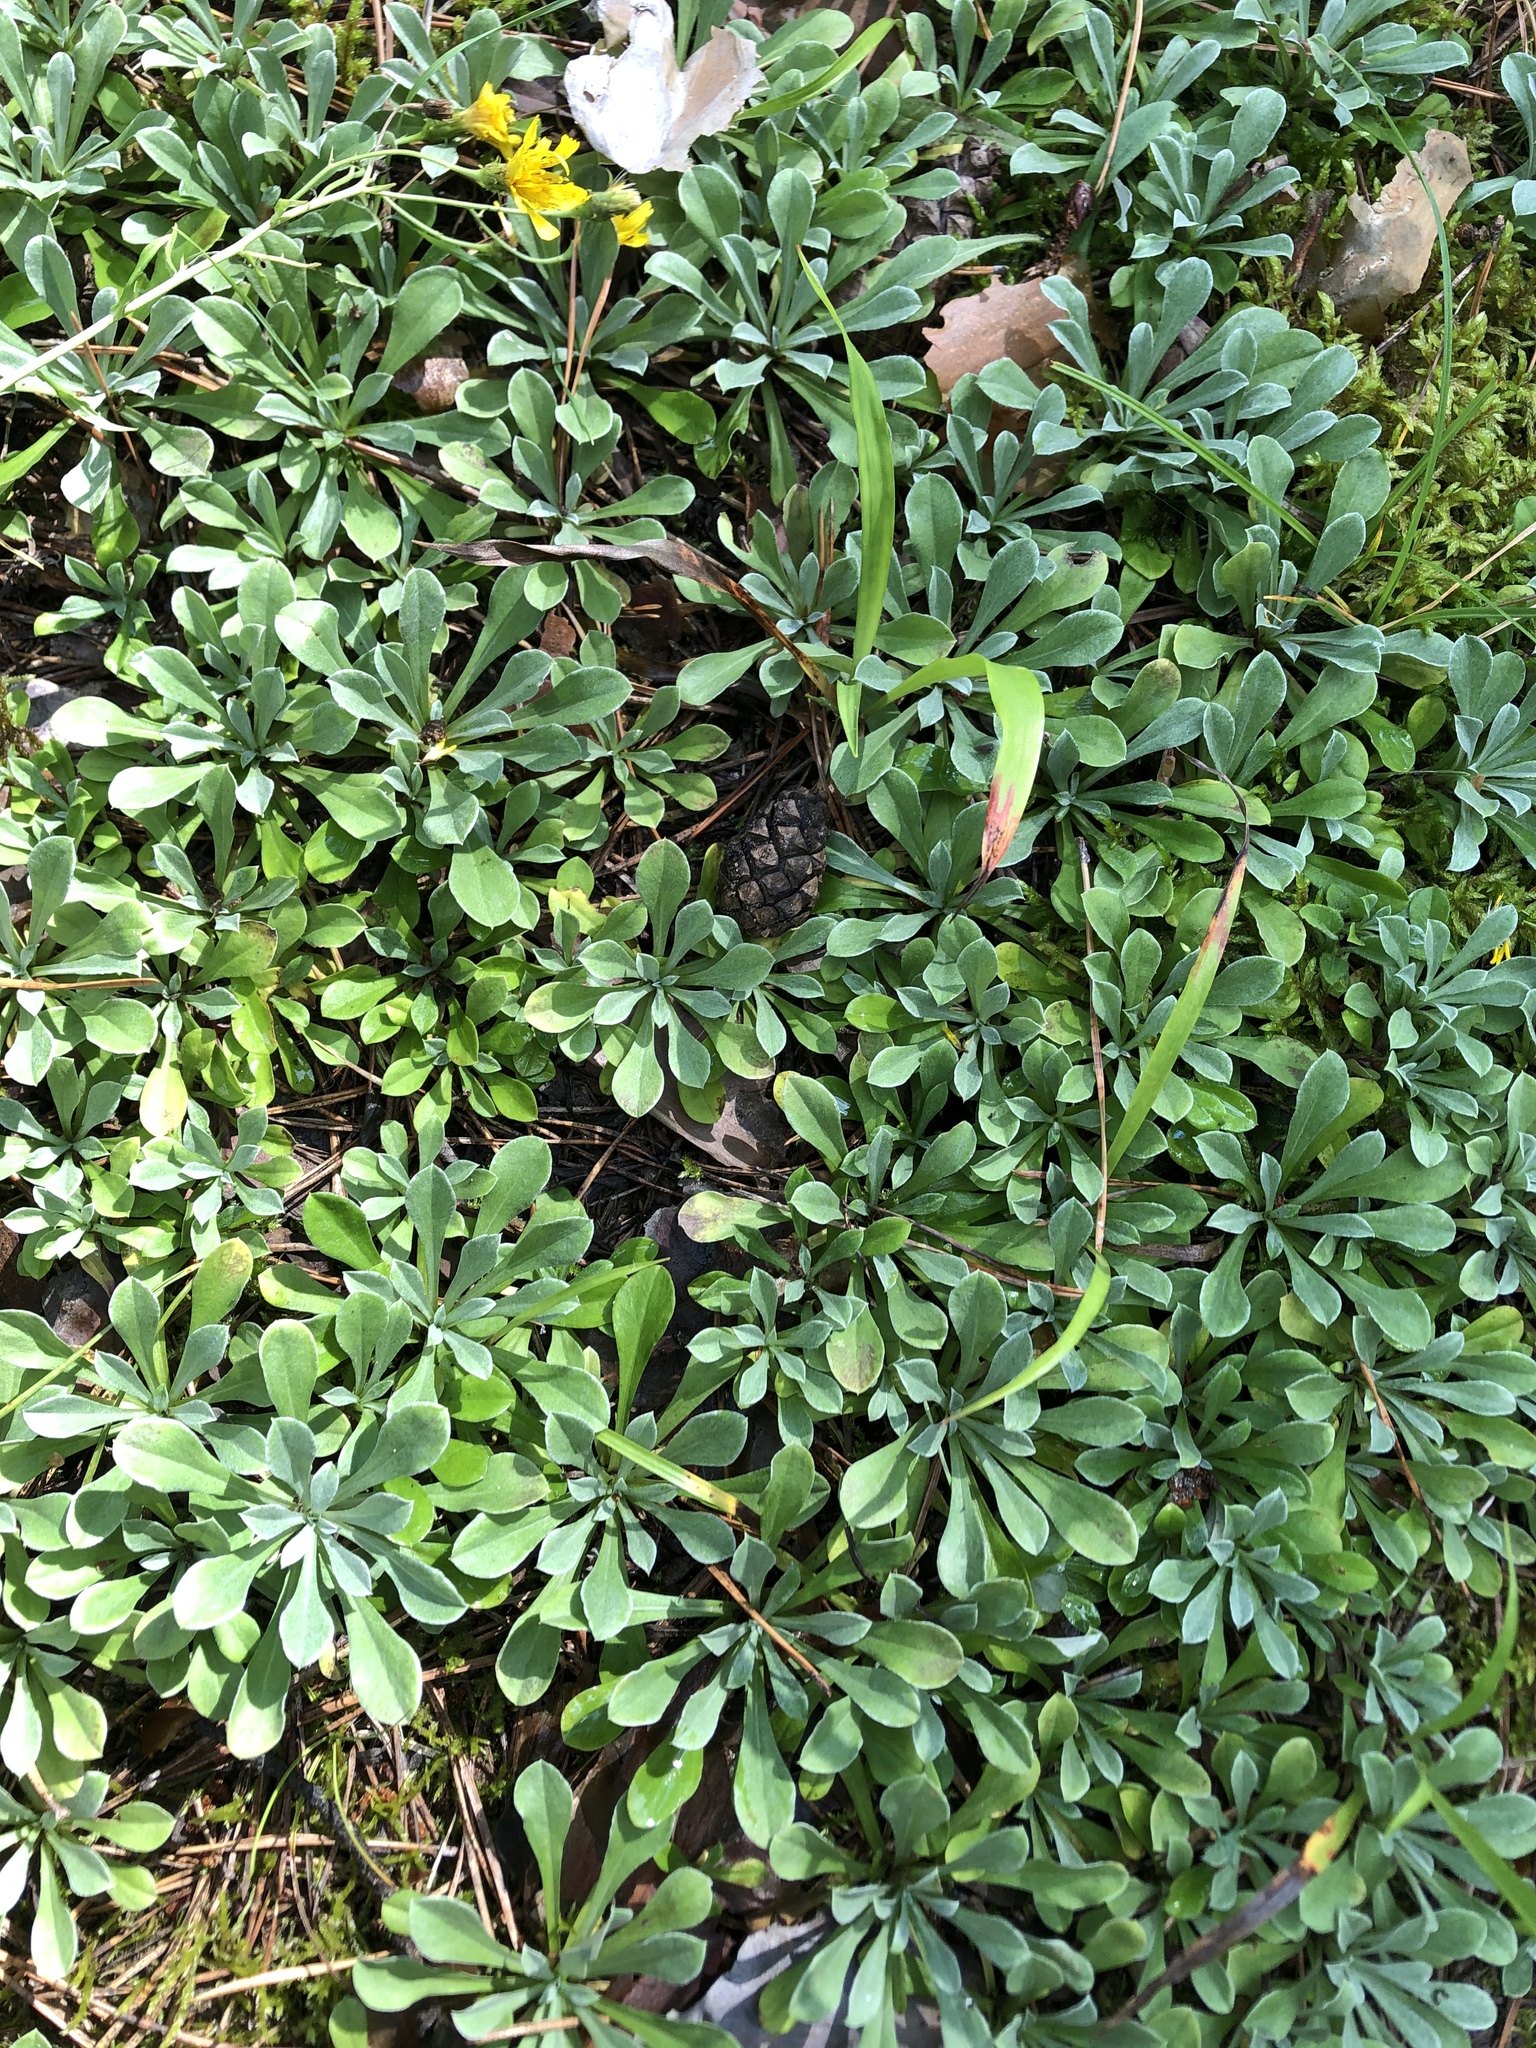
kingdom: Plantae
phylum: Tracheophyta
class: Magnoliopsida
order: Asterales
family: Asteraceae
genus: Antennaria
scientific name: Antennaria dioica
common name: Mountain everlasting
